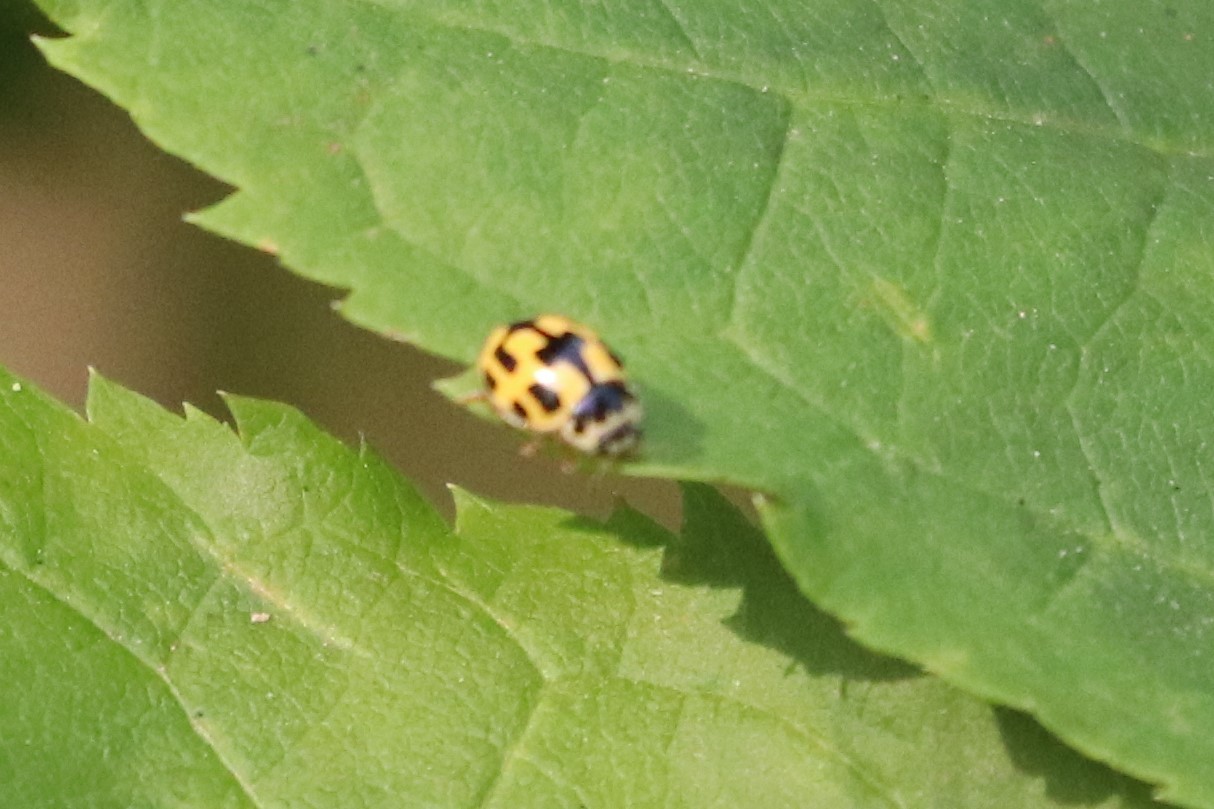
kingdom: Animalia
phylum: Arthropoda
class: Insecta
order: Coleoptera
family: Coccinellidae
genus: Propylaea
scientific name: Propylaea quatuordecimpunctata
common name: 14-spotted ladybird beetle
